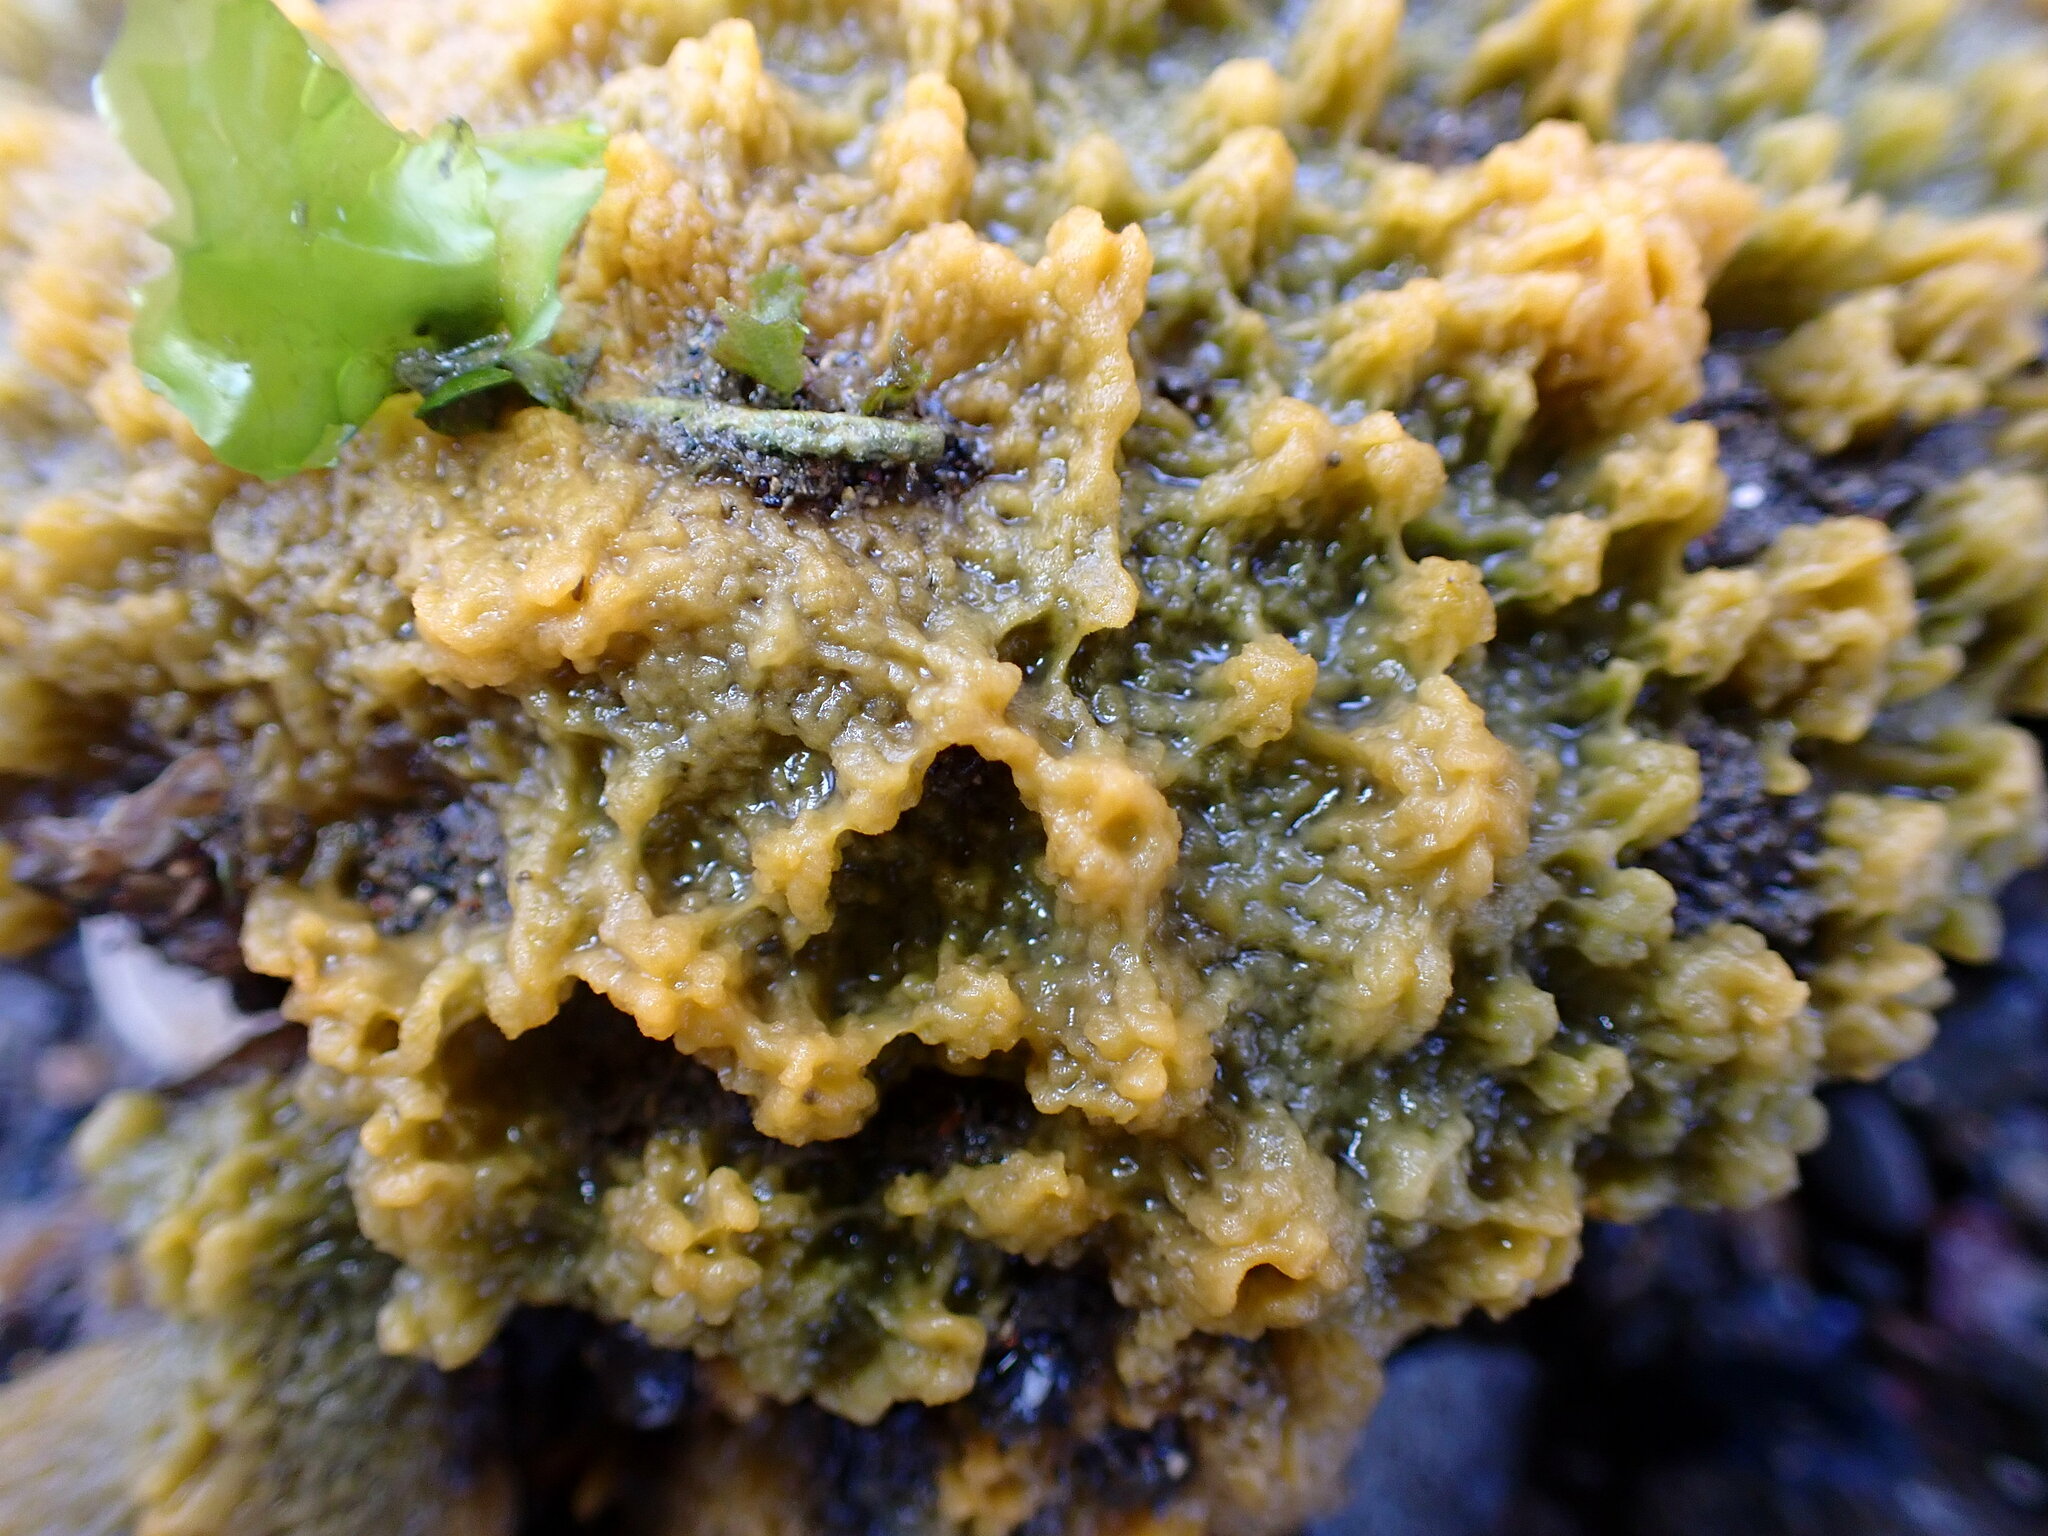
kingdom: Animalia
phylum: Porifera
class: Demospongiae
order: Suberitida
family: Halichondriidae
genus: Hymeniacidon
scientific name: Hymeniacidon perlevis
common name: Crumb-of-bread sponge
